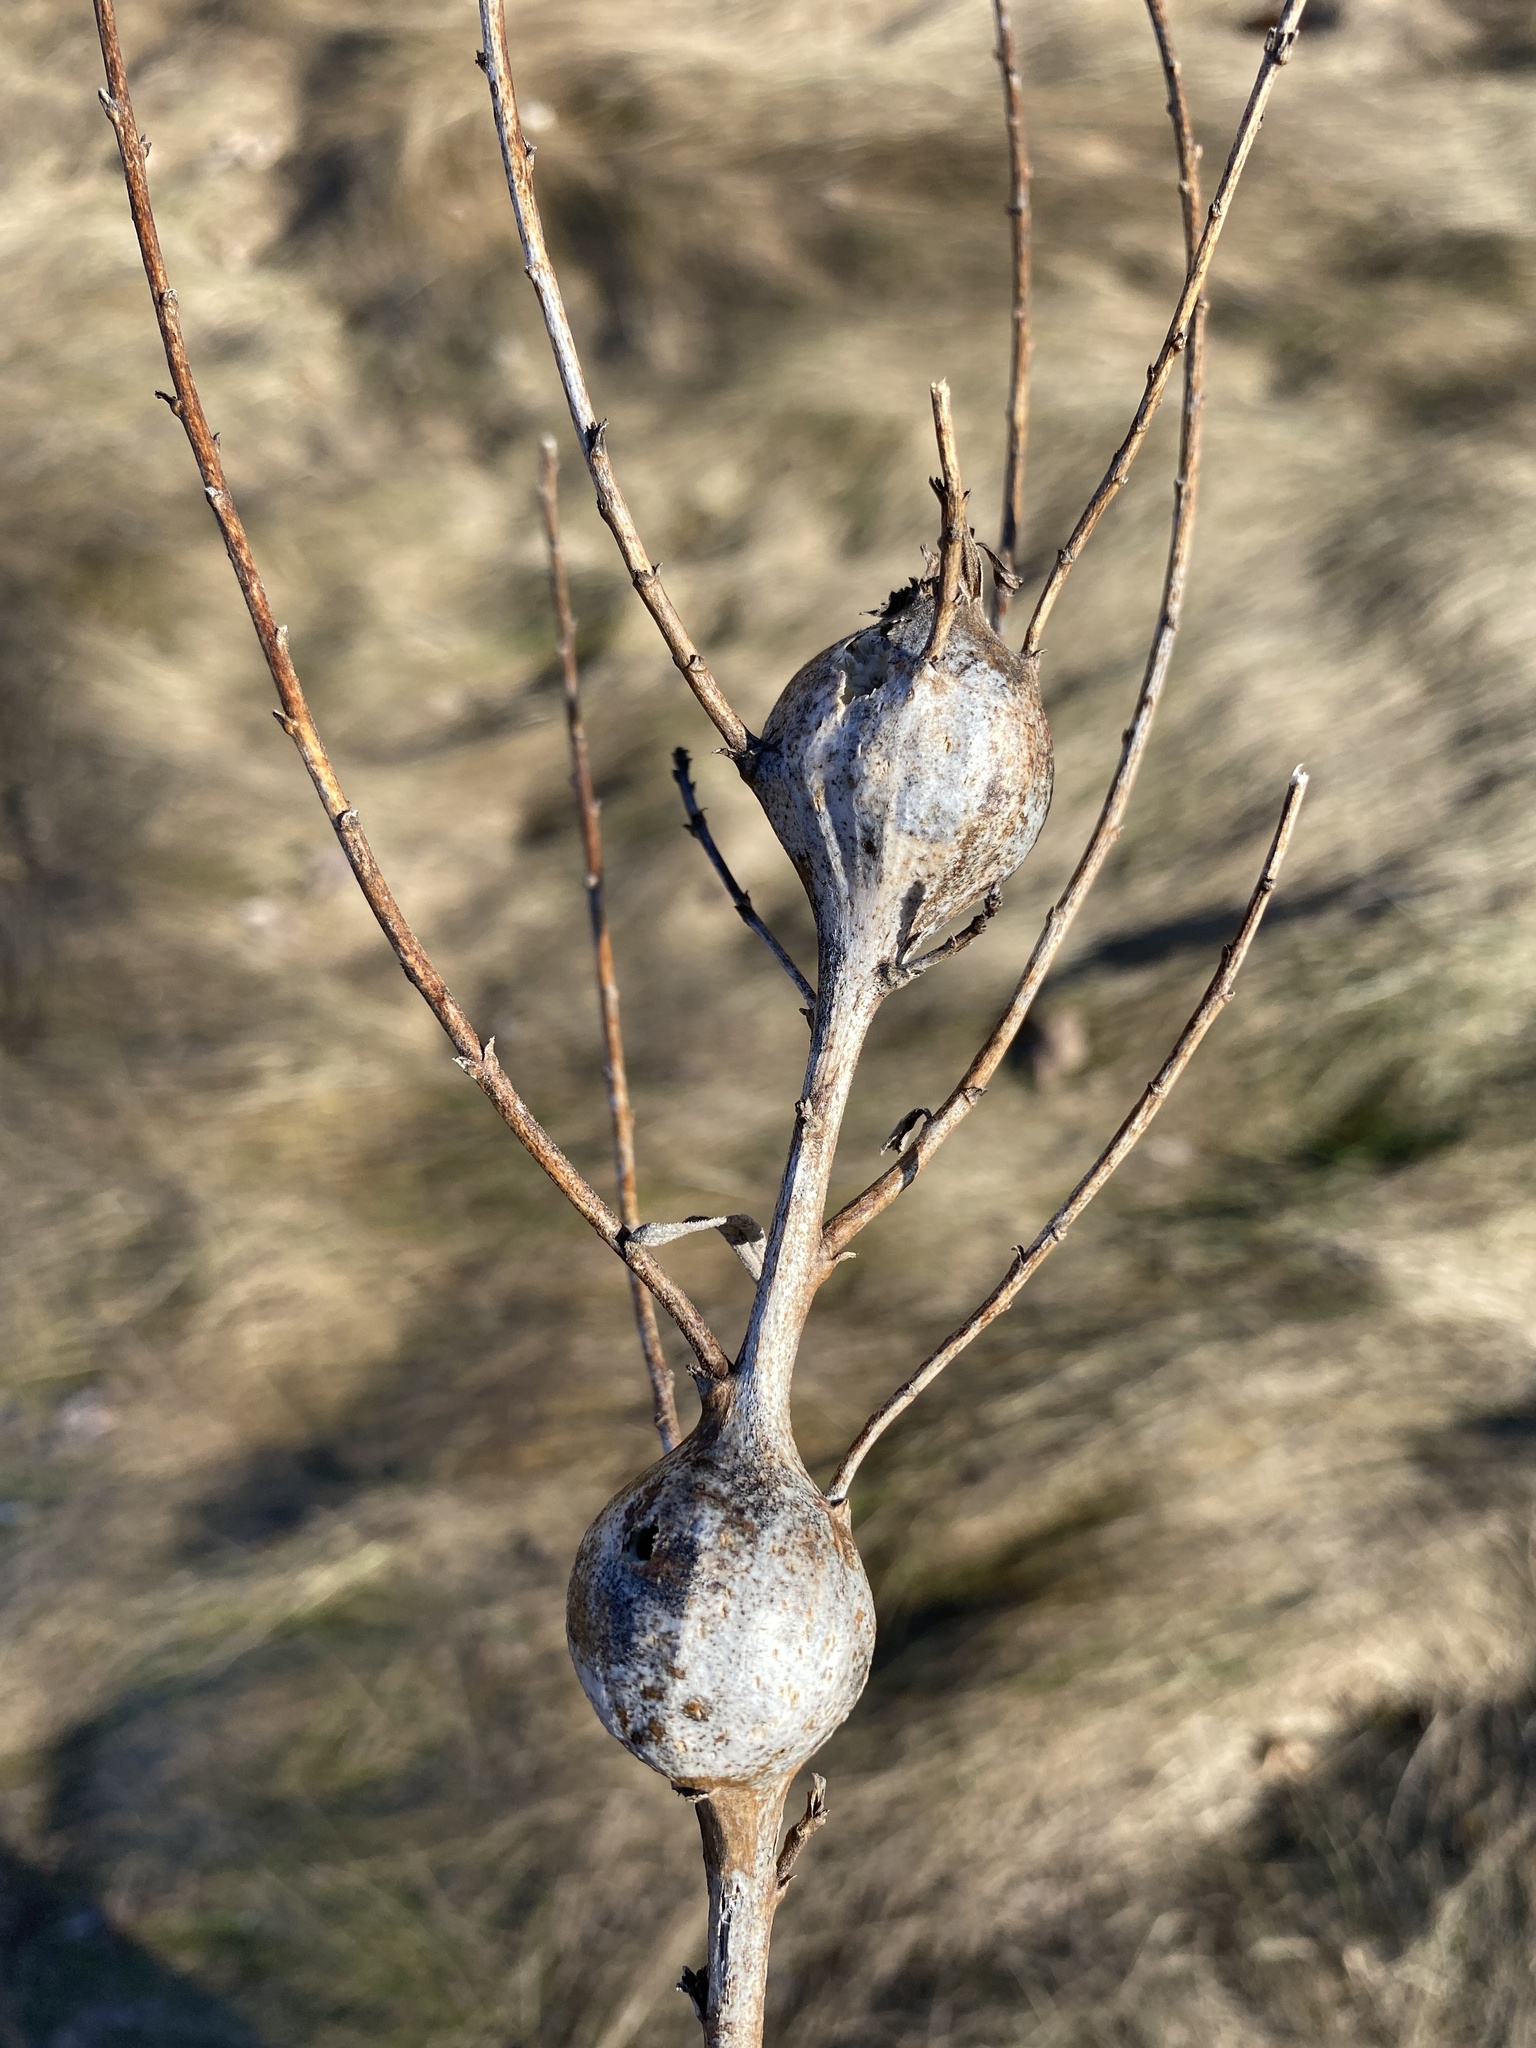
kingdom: Animalia
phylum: Arthropoda
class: Insecta
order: Diptera
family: Tephritidae
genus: Eurosta
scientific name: Eurosta solidaginis
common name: Goldenrod gall fly
